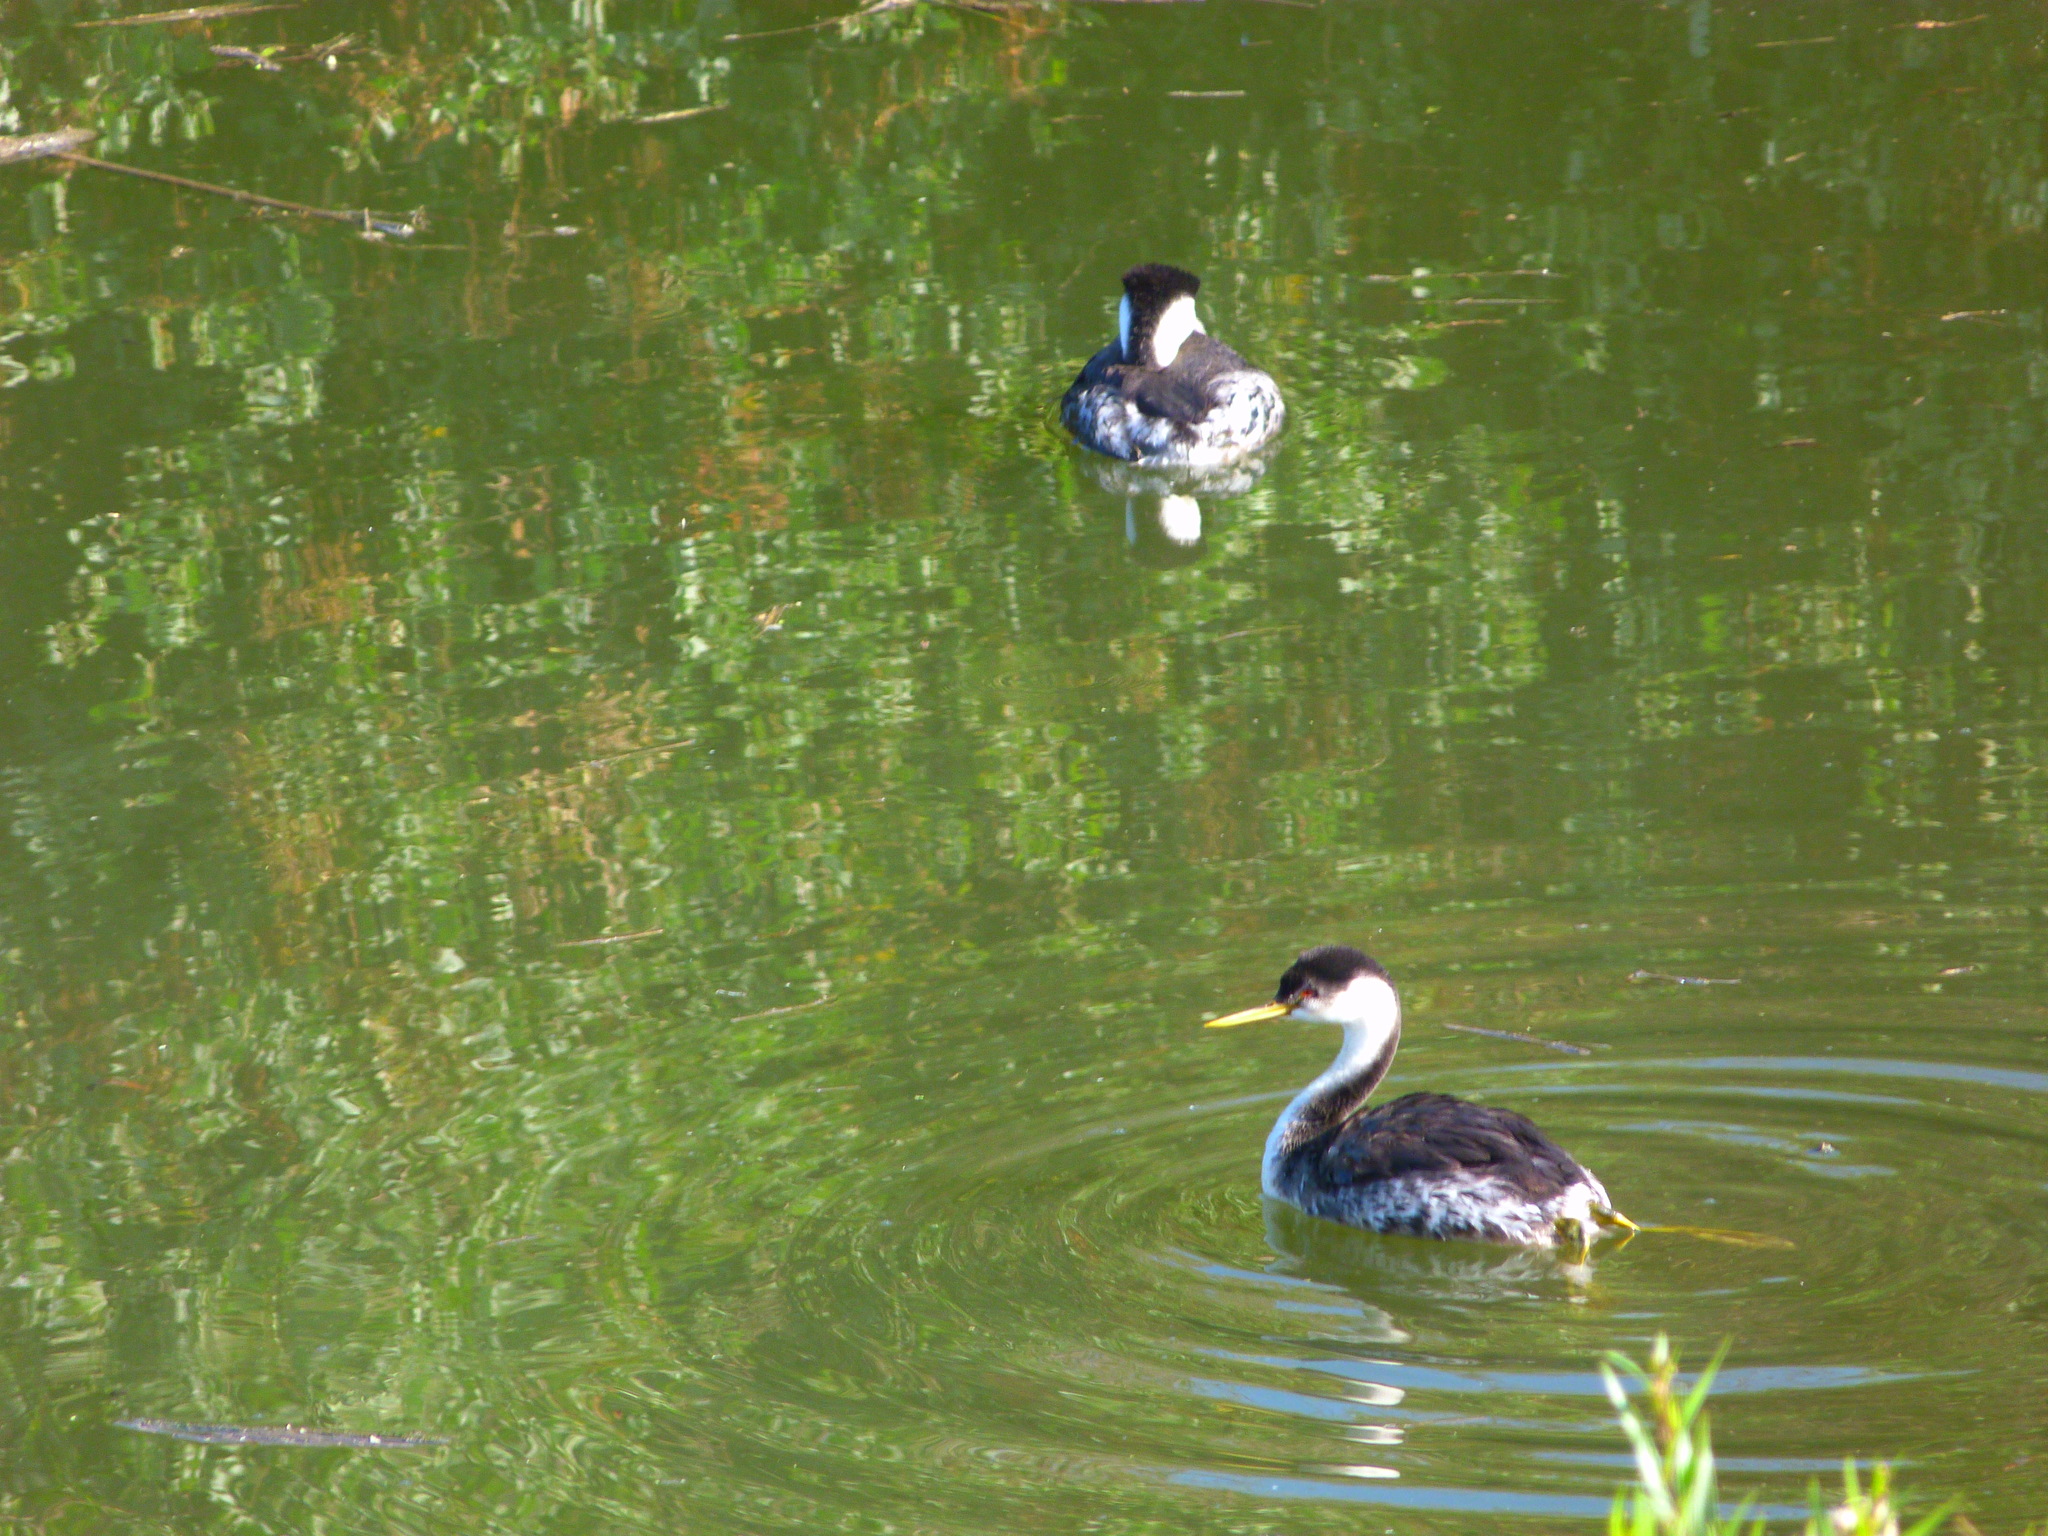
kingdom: Animalia
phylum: Chordata
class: Aves
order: Podicipediformes
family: Podicipedidae
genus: Aechmophorus
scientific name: Aechmophorus occidentalis
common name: Western grebe
